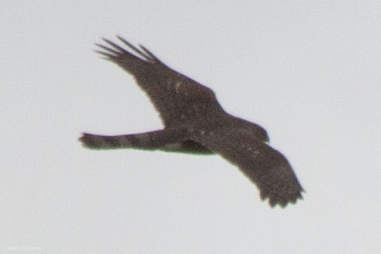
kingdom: Animalia
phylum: Chordata
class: Aves
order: Accipitriformes
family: Accipitridae
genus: Accipiter
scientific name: Accipiter cooperii
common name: Cooper's hawk
